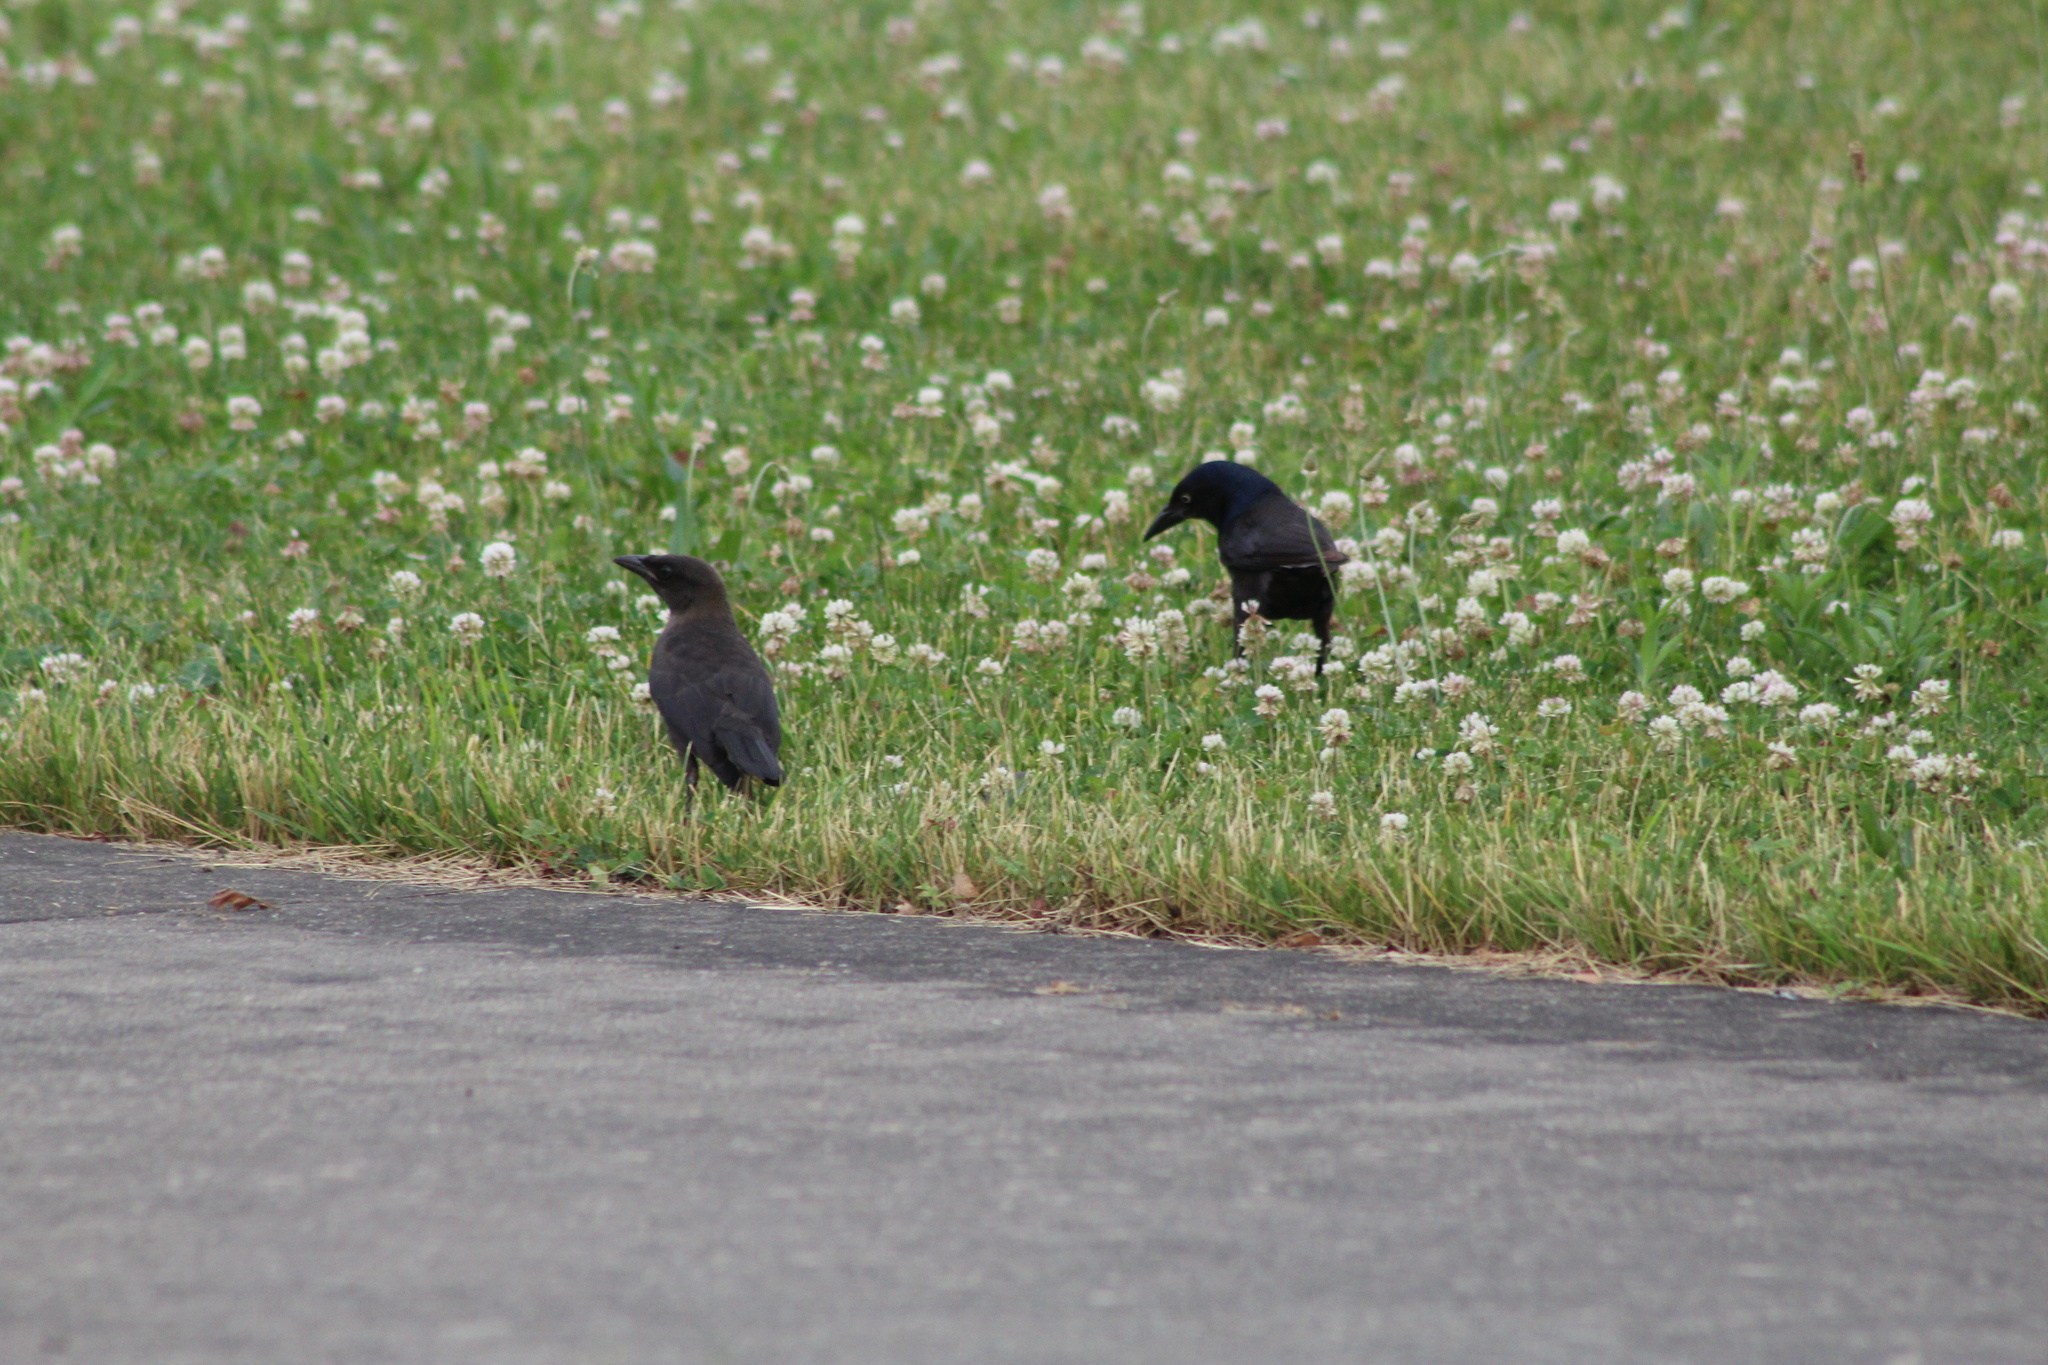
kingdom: Animalia
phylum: Chordata
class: Aves
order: Passeriformes
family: Icteridae
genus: Quiscalus
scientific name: Quiscalus quiscula
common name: Common grackle
